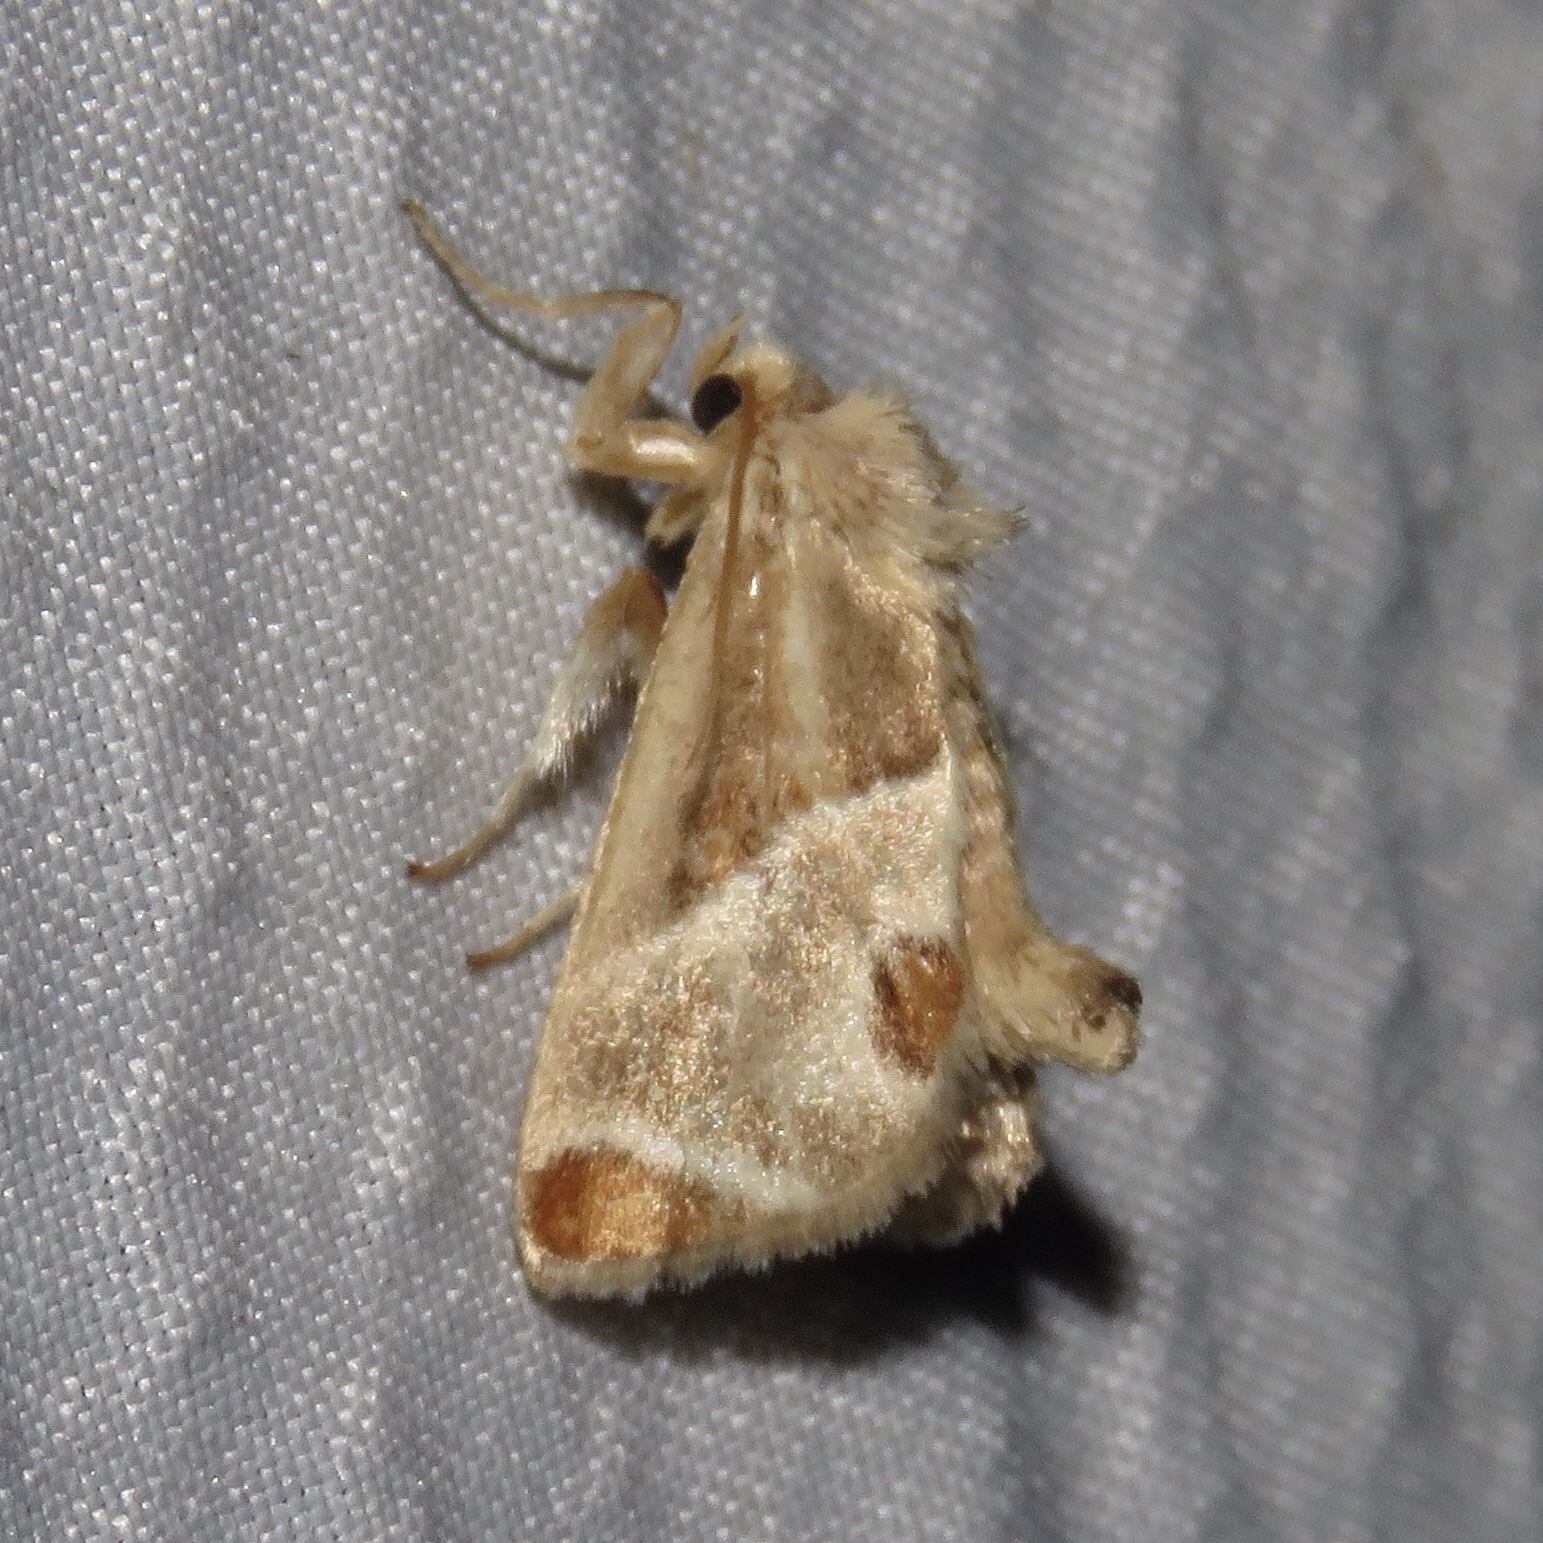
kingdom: Animalia
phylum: Arthropoda
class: Insecta
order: Lepidoptera
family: Limacodidae
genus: Apoda
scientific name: Apoda biguttata
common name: Shagreened slug moth
